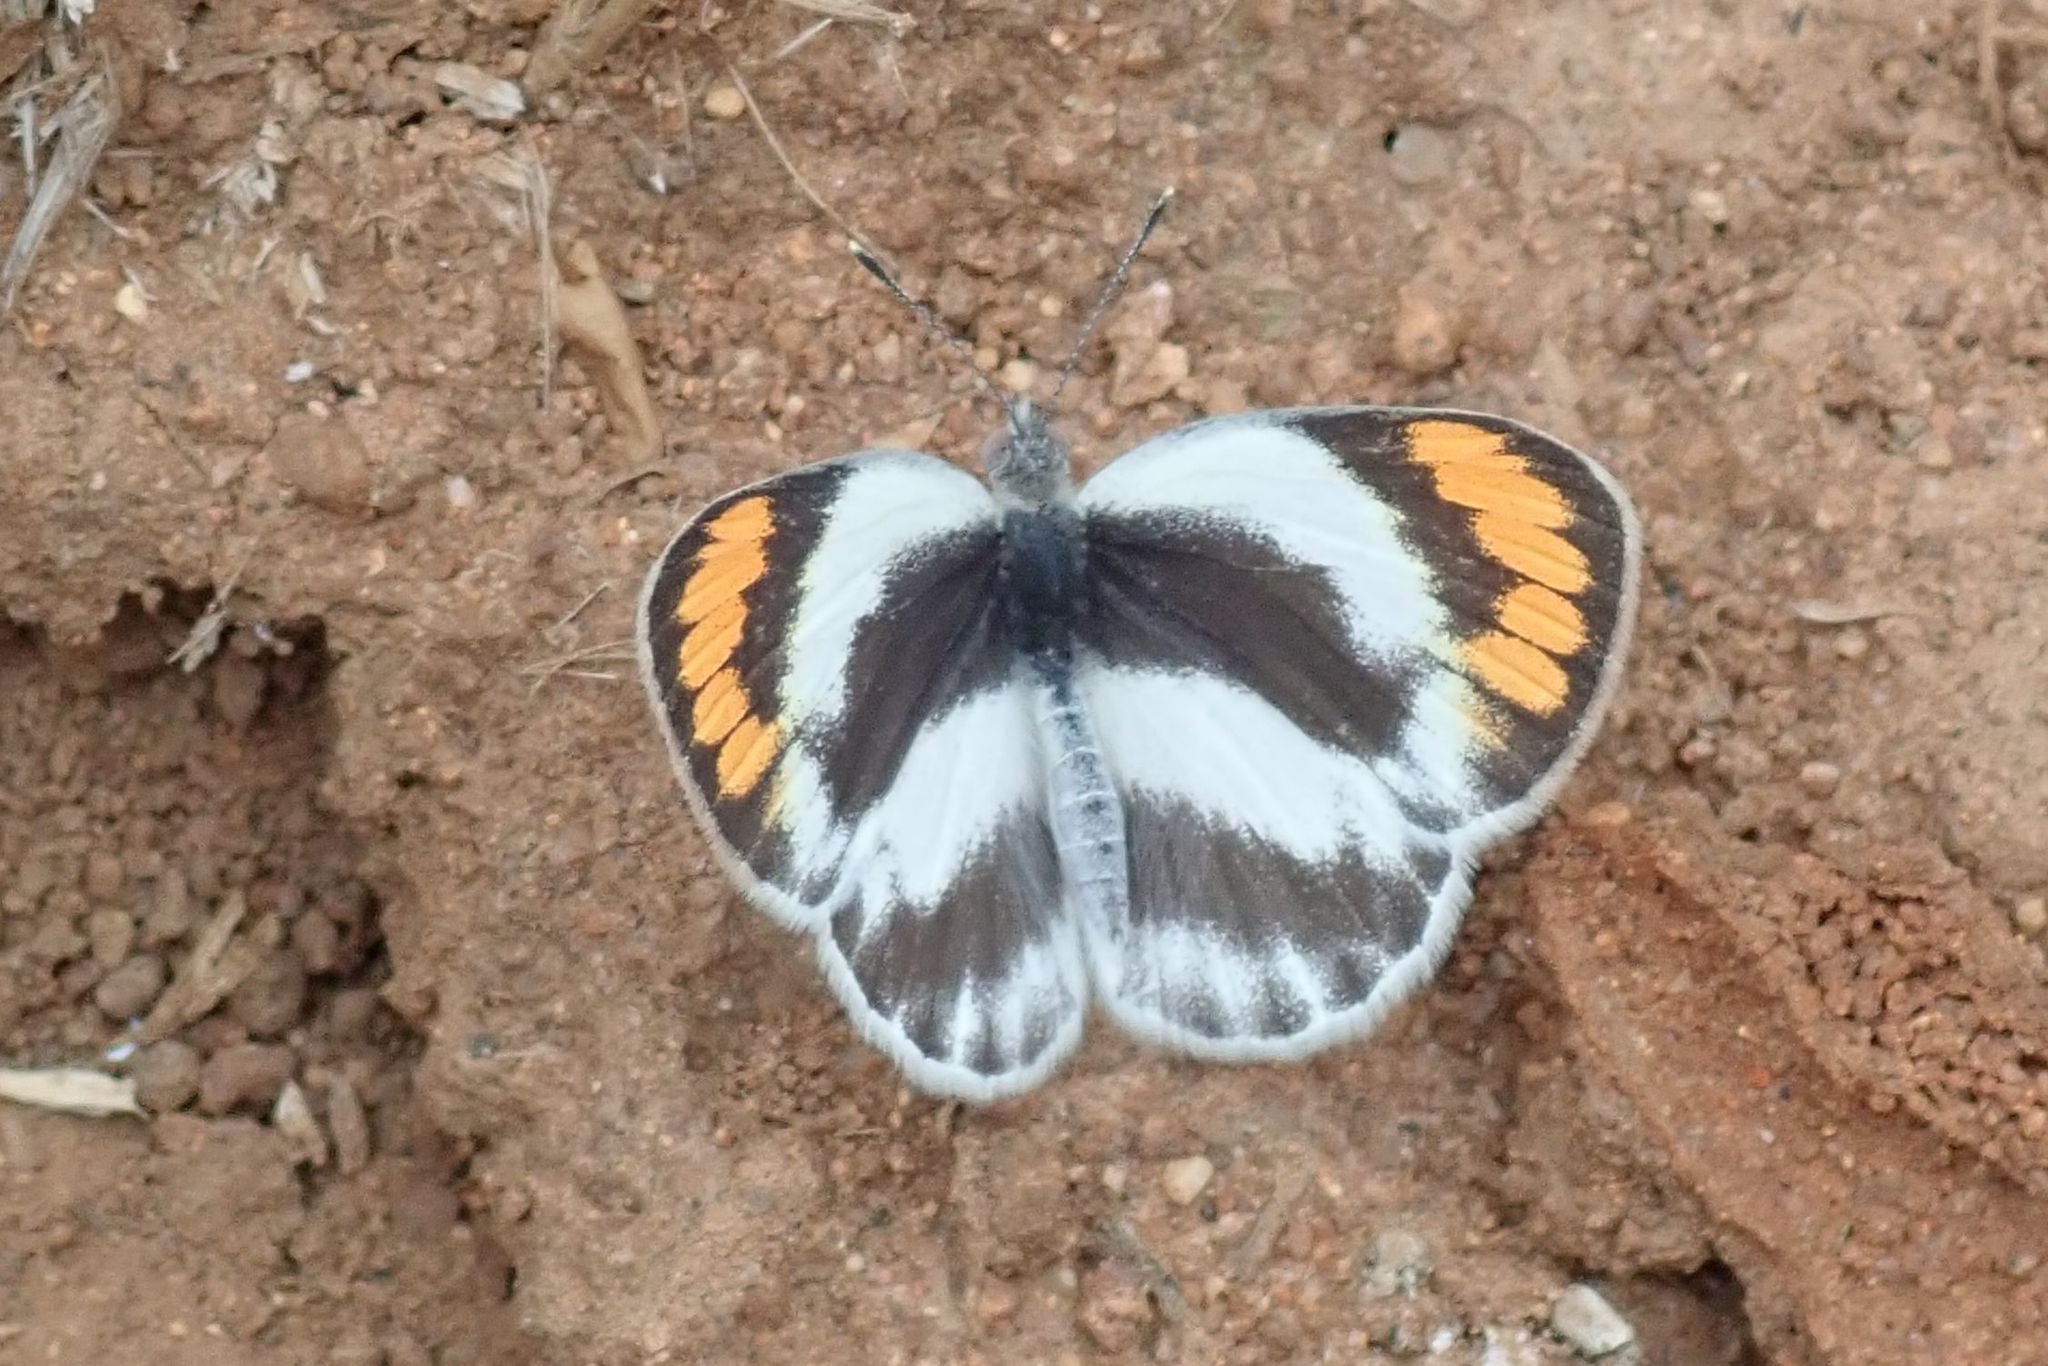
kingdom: Animalia
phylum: Arthropoda
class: Insecta
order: Lepidoptera
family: Pieridae
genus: Colotis
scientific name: Colotis euippe
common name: Round-winged orange tip
